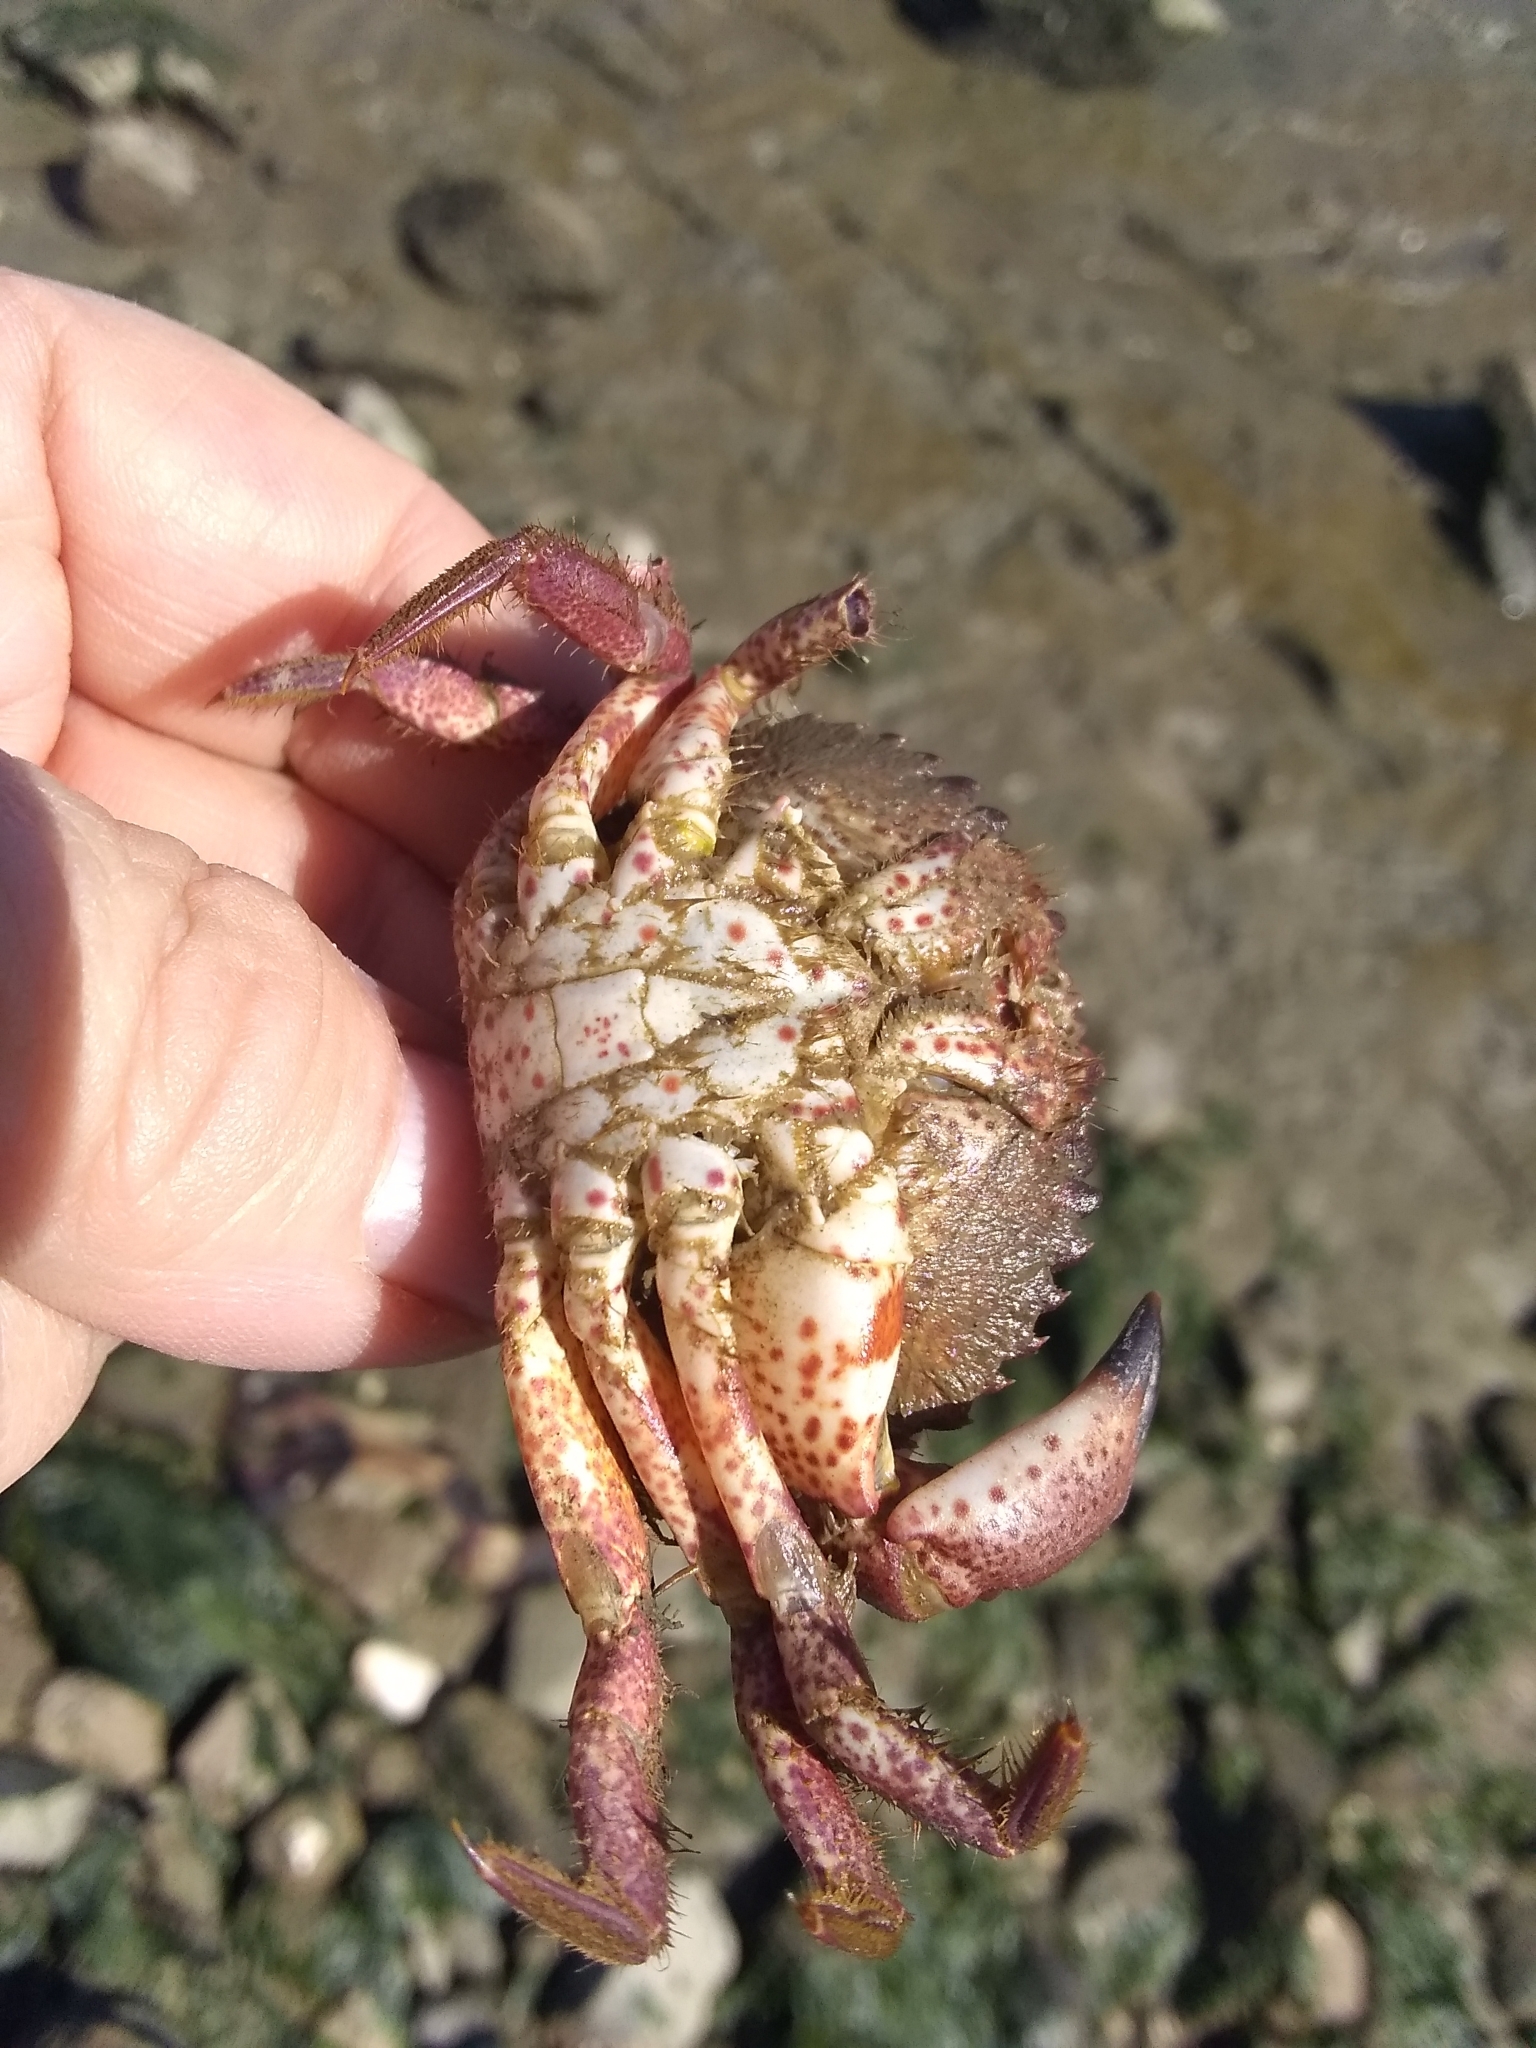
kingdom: Animalia
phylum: Arthropoda
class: Malacostraca
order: Decapoda
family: Cancridae
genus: Romaleon
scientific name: Romaleon antennarium
